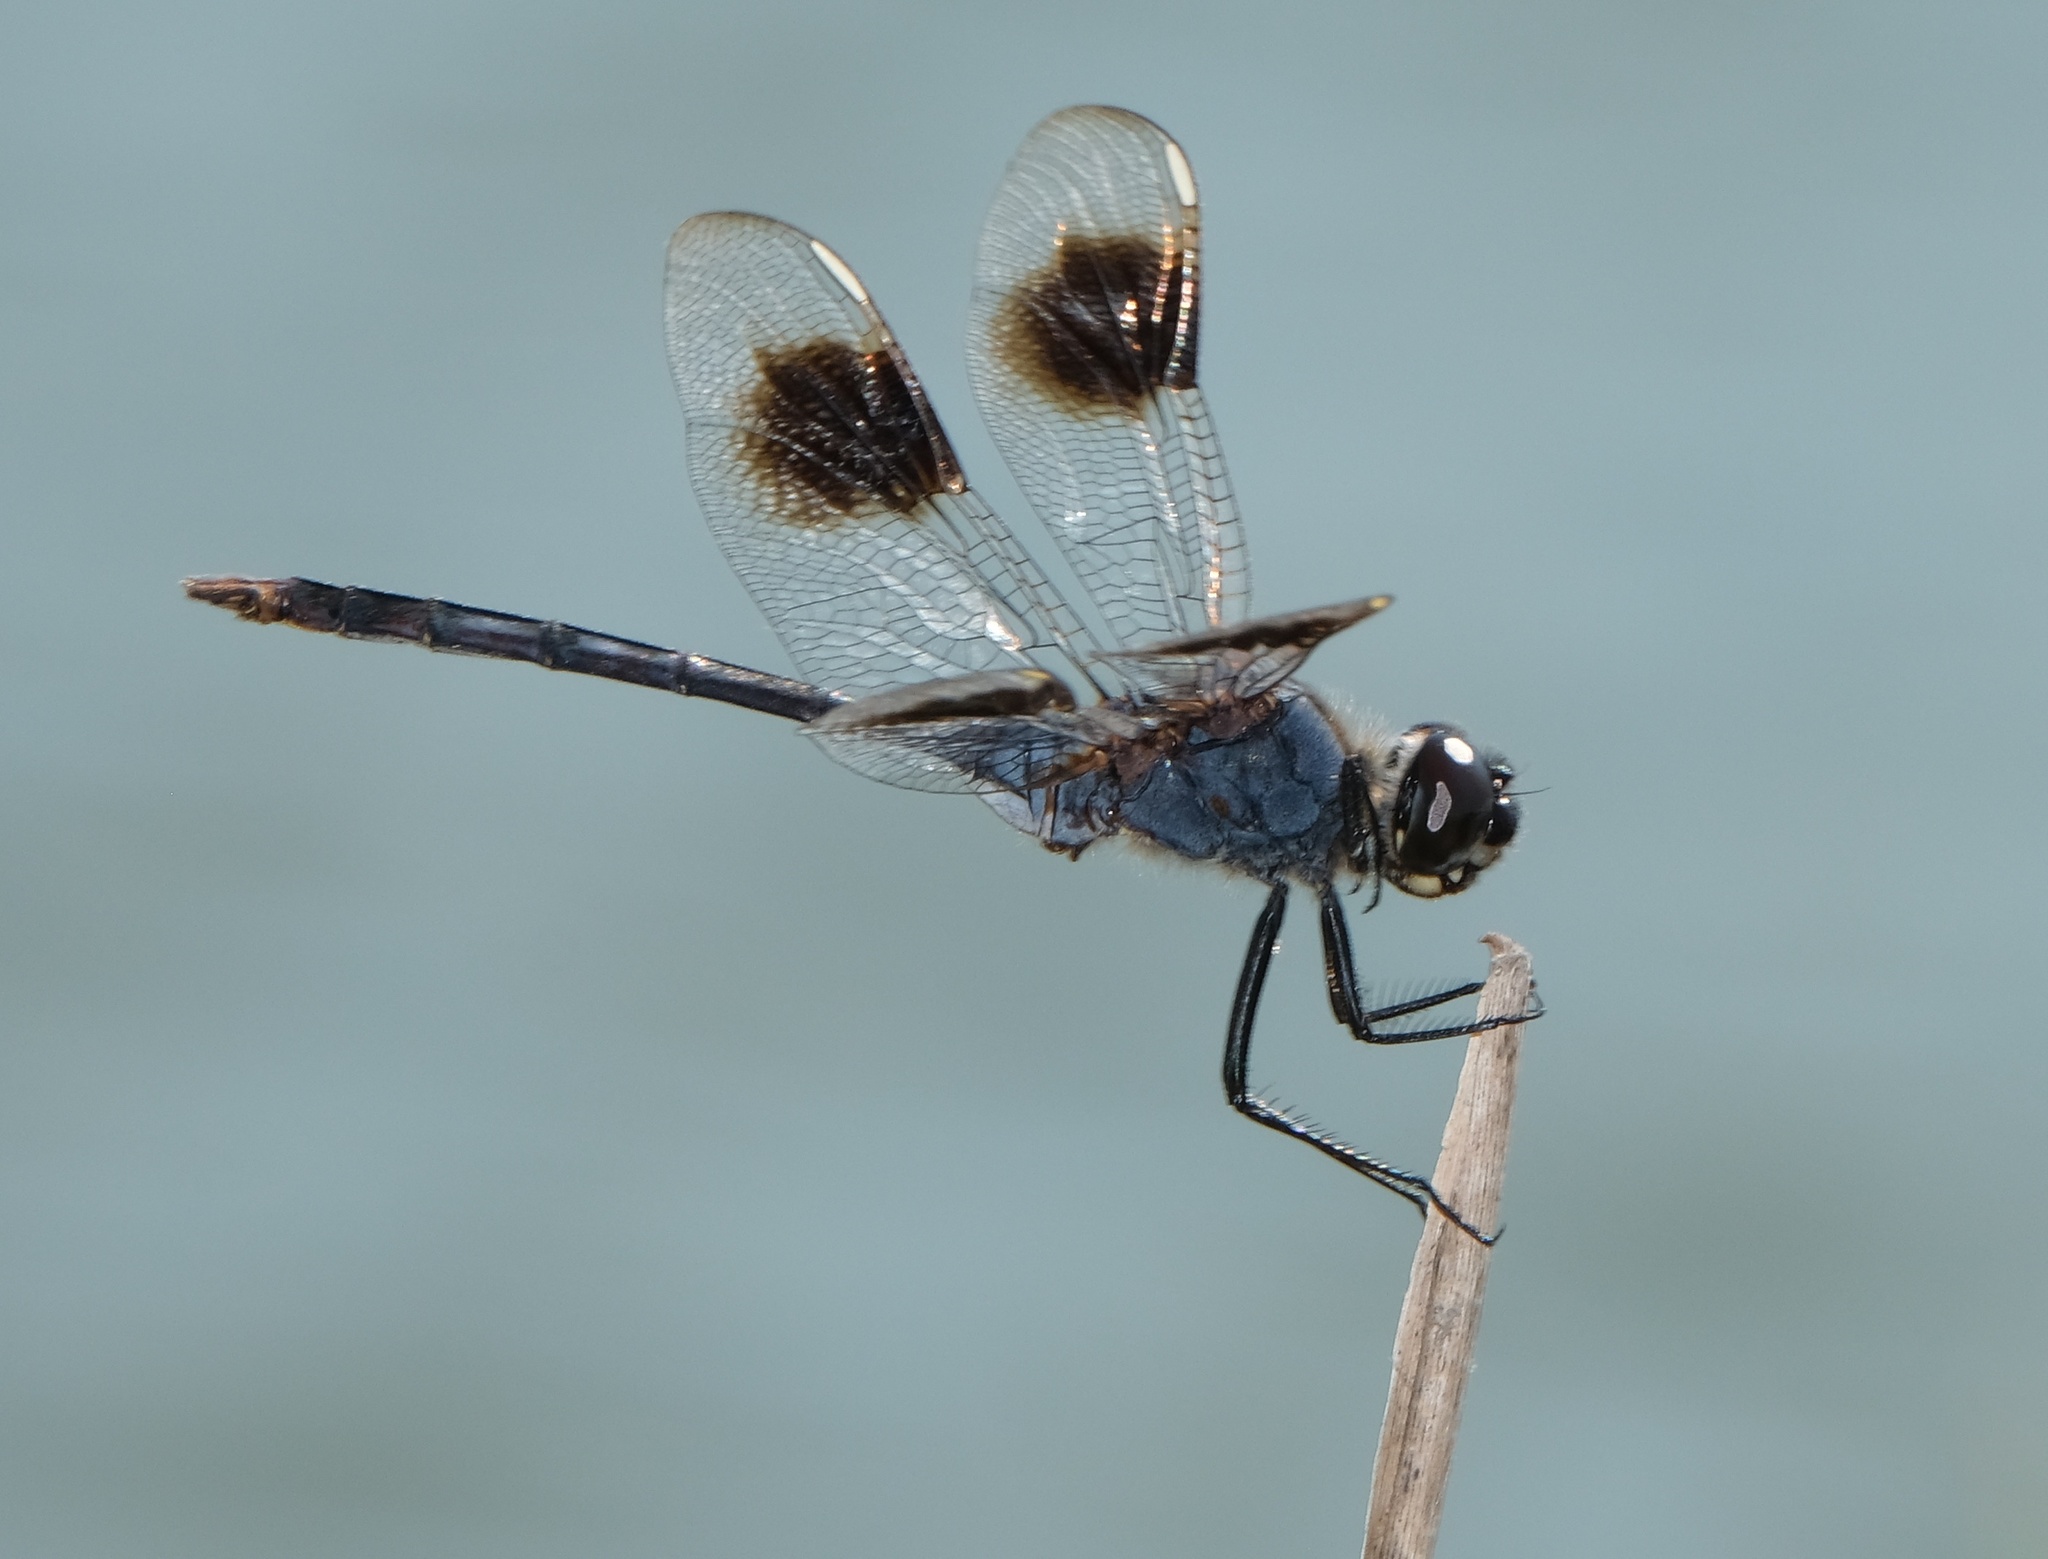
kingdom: Animalia
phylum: Arthropoda
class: Insecta
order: Odonata
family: Libellulidae
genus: Brachymesia
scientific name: Brachymesia gravida
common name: Four-spotted pennant
